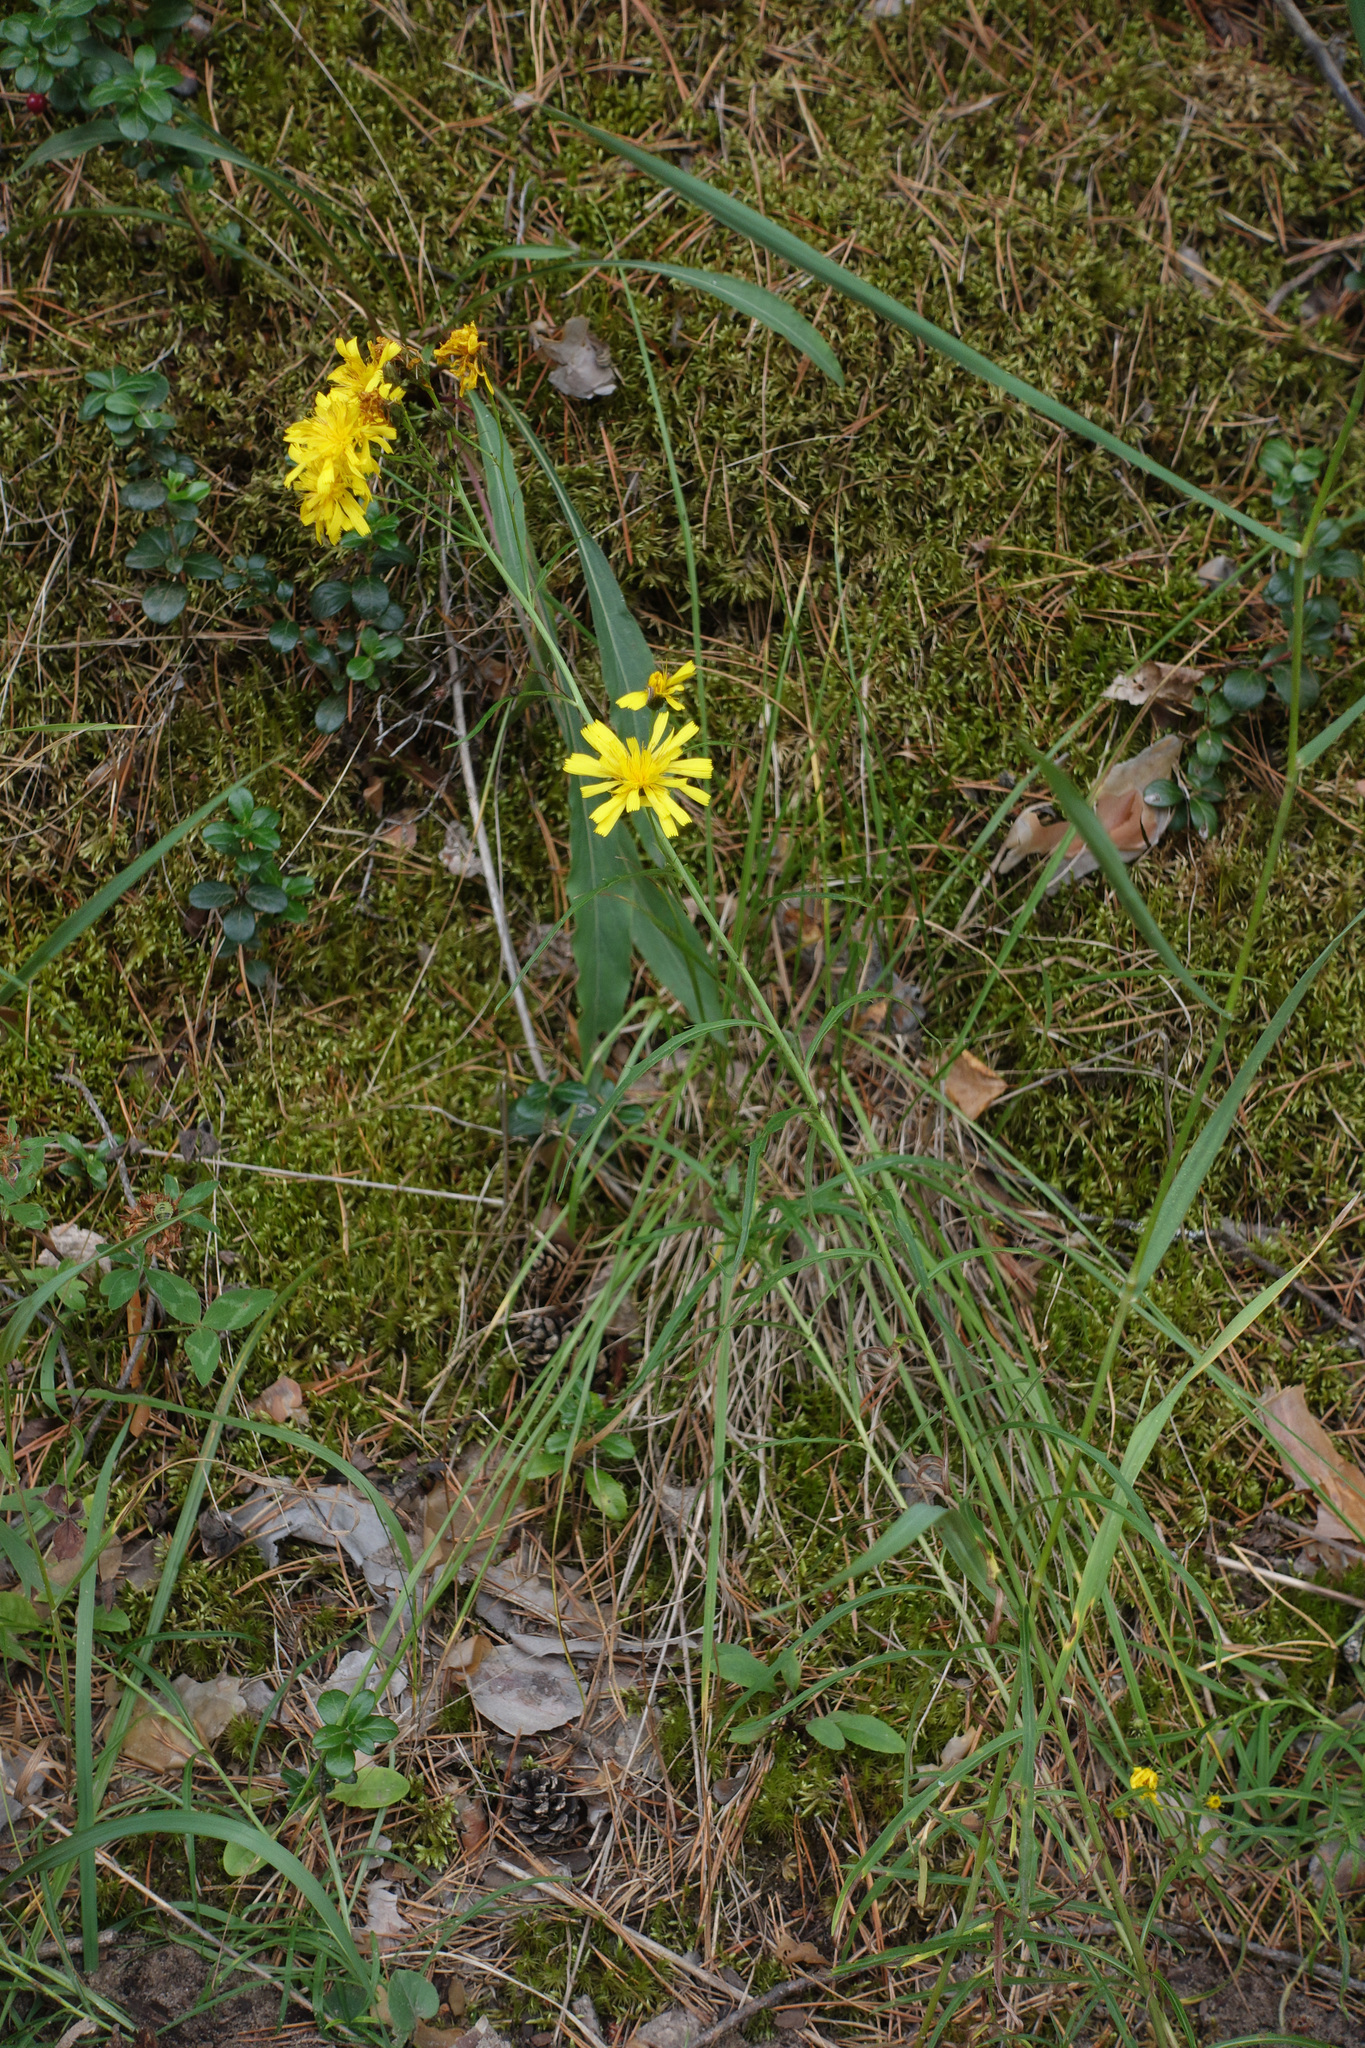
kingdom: Plantae
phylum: Tracheophyta
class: Magnoliopsida
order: Asterales
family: Asteraceae
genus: Hieracium
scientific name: Hieracium umbellatum
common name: Northern hawkweed
